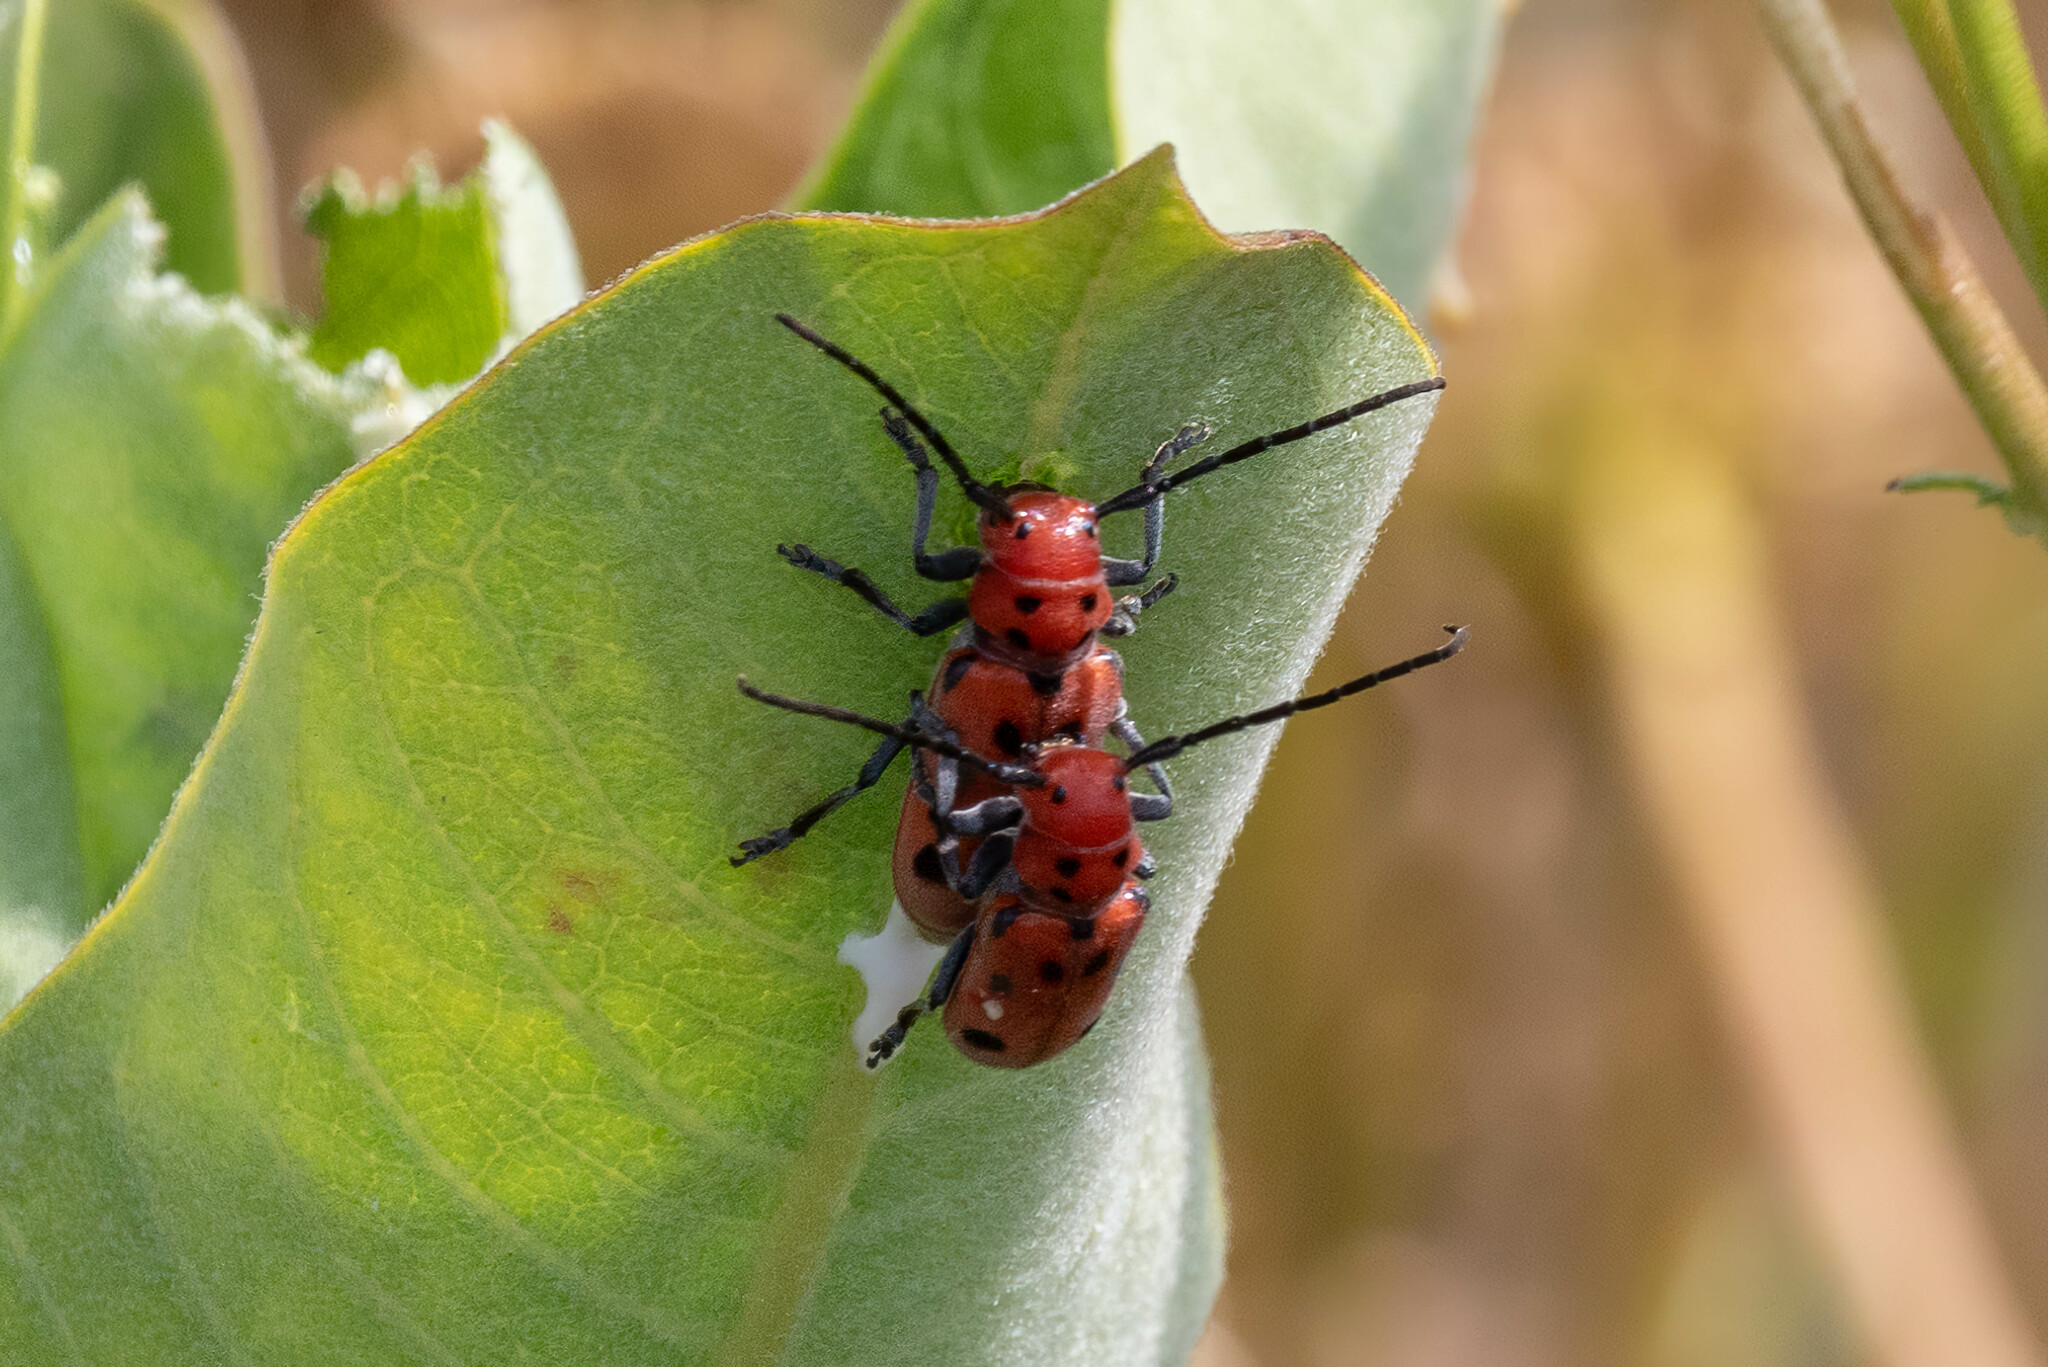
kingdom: Animalia
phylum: Arthropoda
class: Insecta
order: Coleoptera
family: Cerambycidae
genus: Tetraopes
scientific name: Tetraopes tetrophthalmus
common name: Red milkweed beetle
